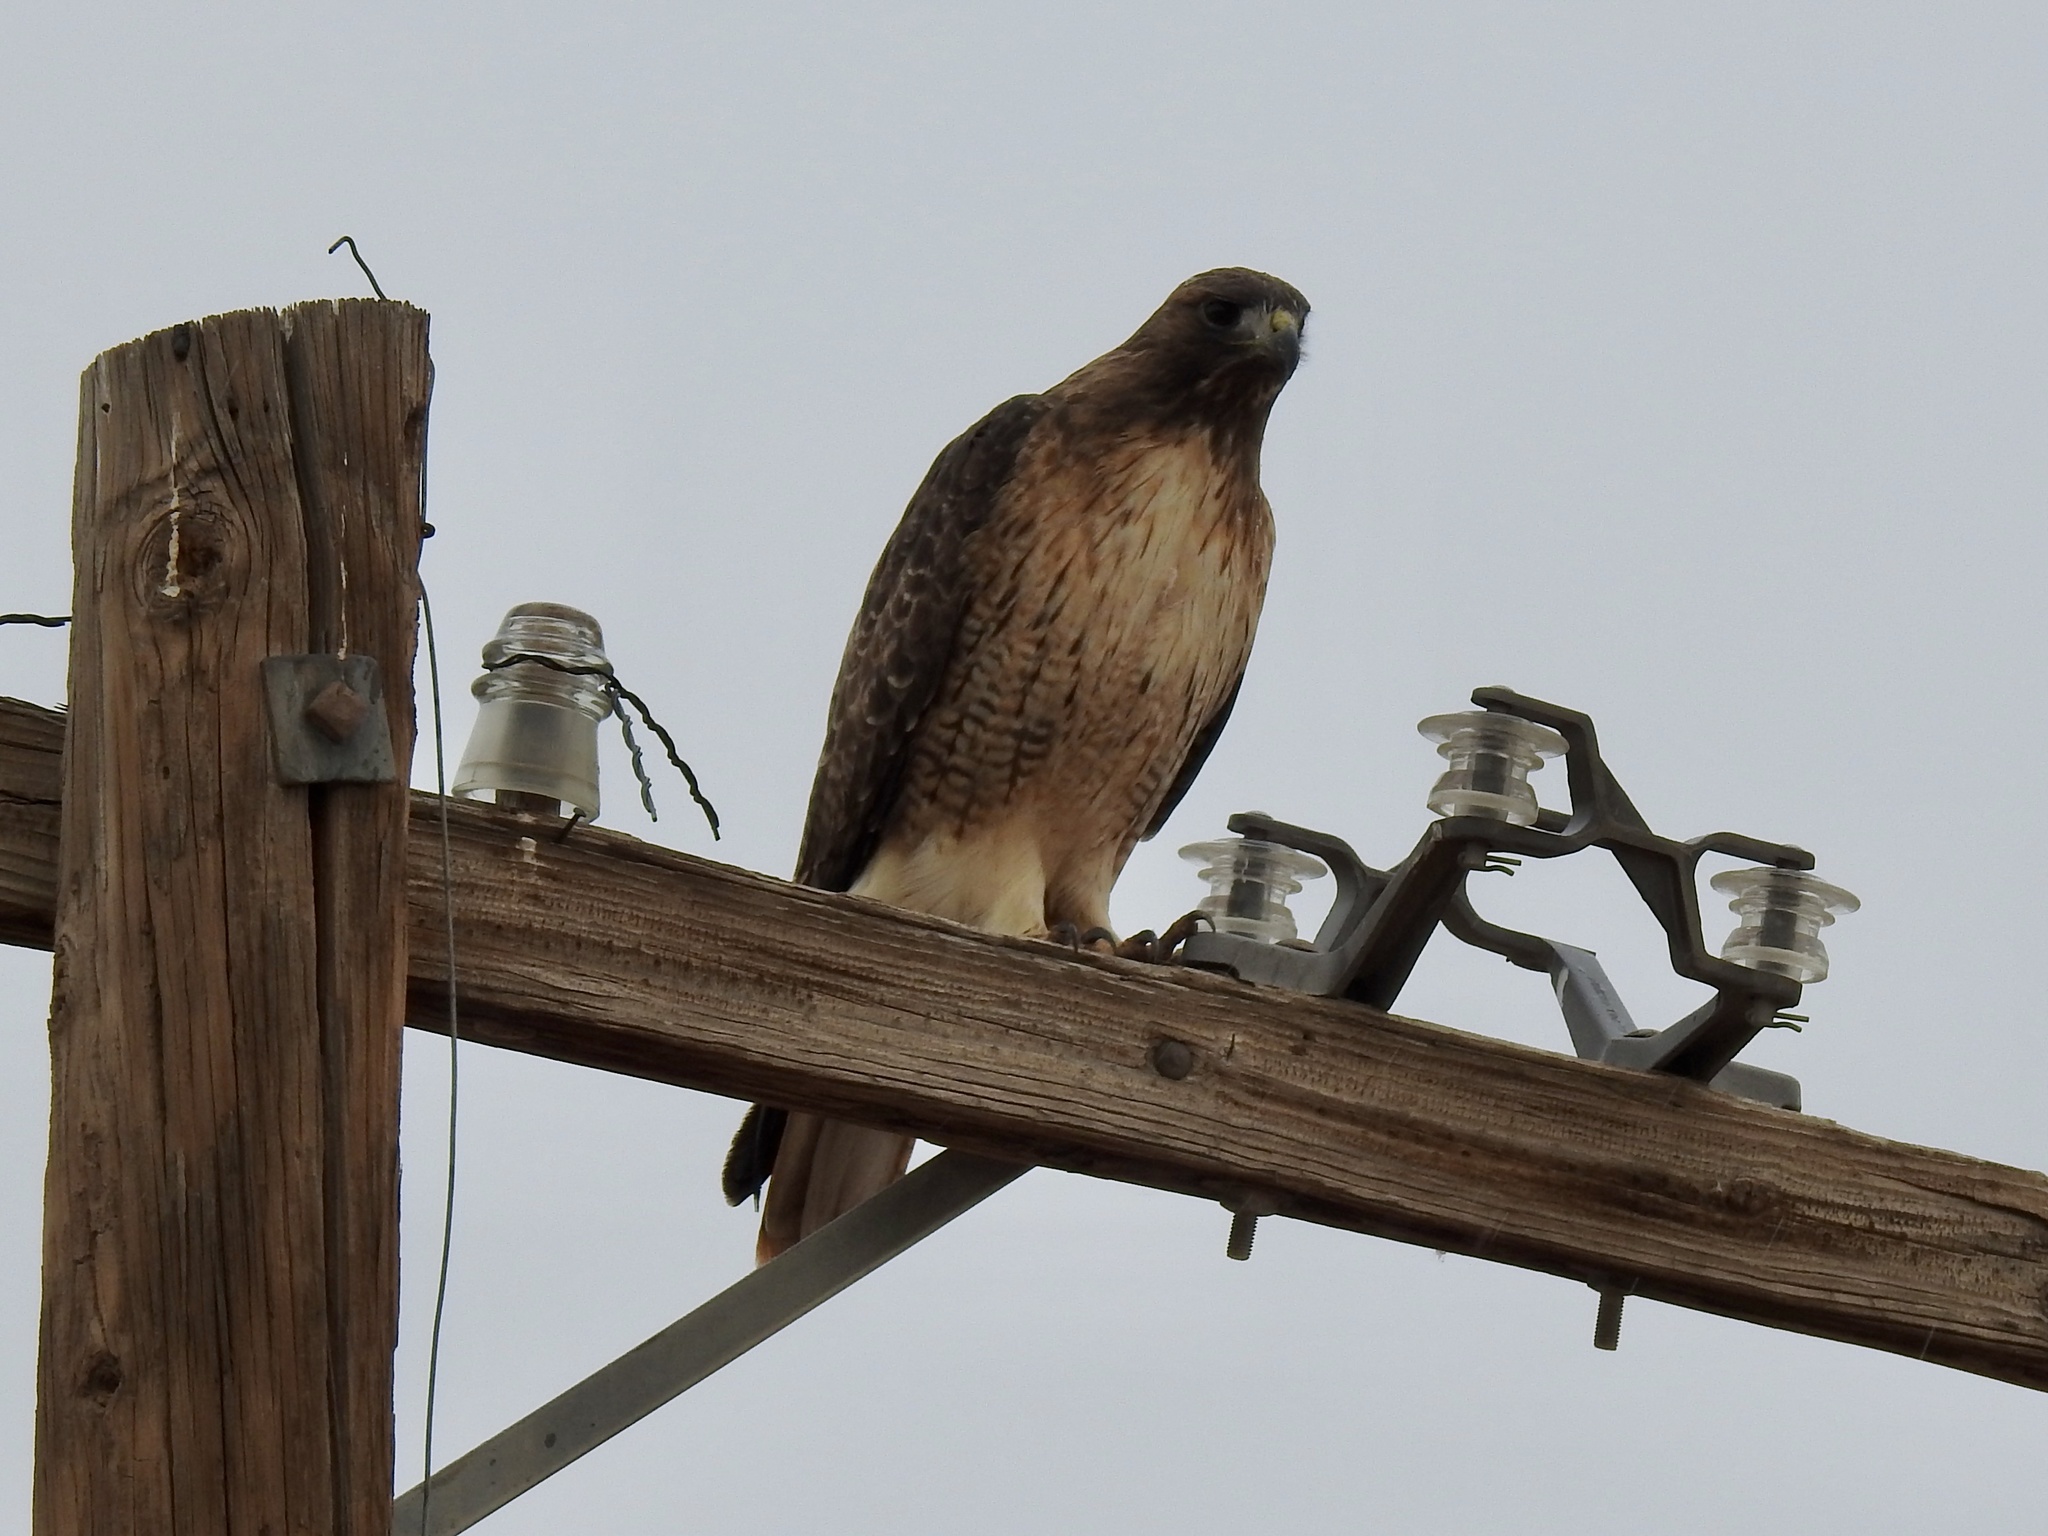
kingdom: Animalia
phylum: Chordata
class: Aves
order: Accipitriformes
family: Accipitridae
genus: Buteo
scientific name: Buteo jamaicensis
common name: Red-tailed hawk
